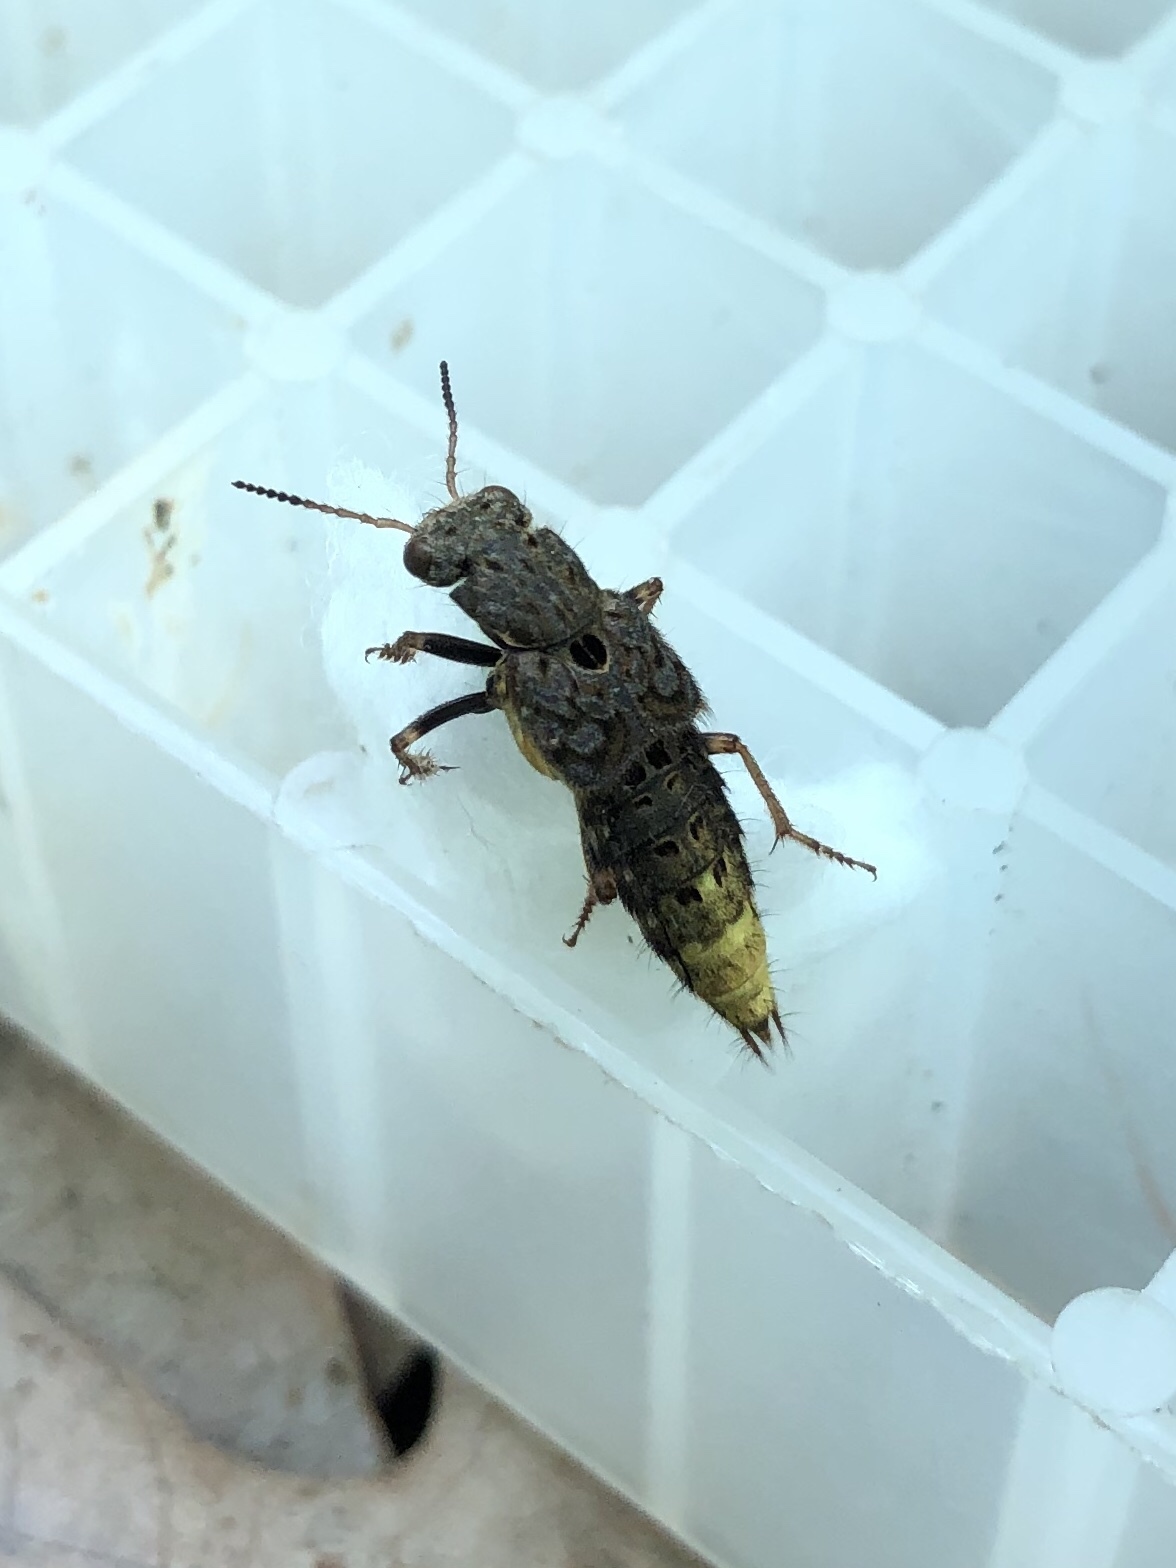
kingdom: Animalia
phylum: Arthropoda
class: Insecta
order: Coleoptera
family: Staphylinidae
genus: Ontholestes
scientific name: Ontholestes cingulatus
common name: Gold-and-brown rove beetle
